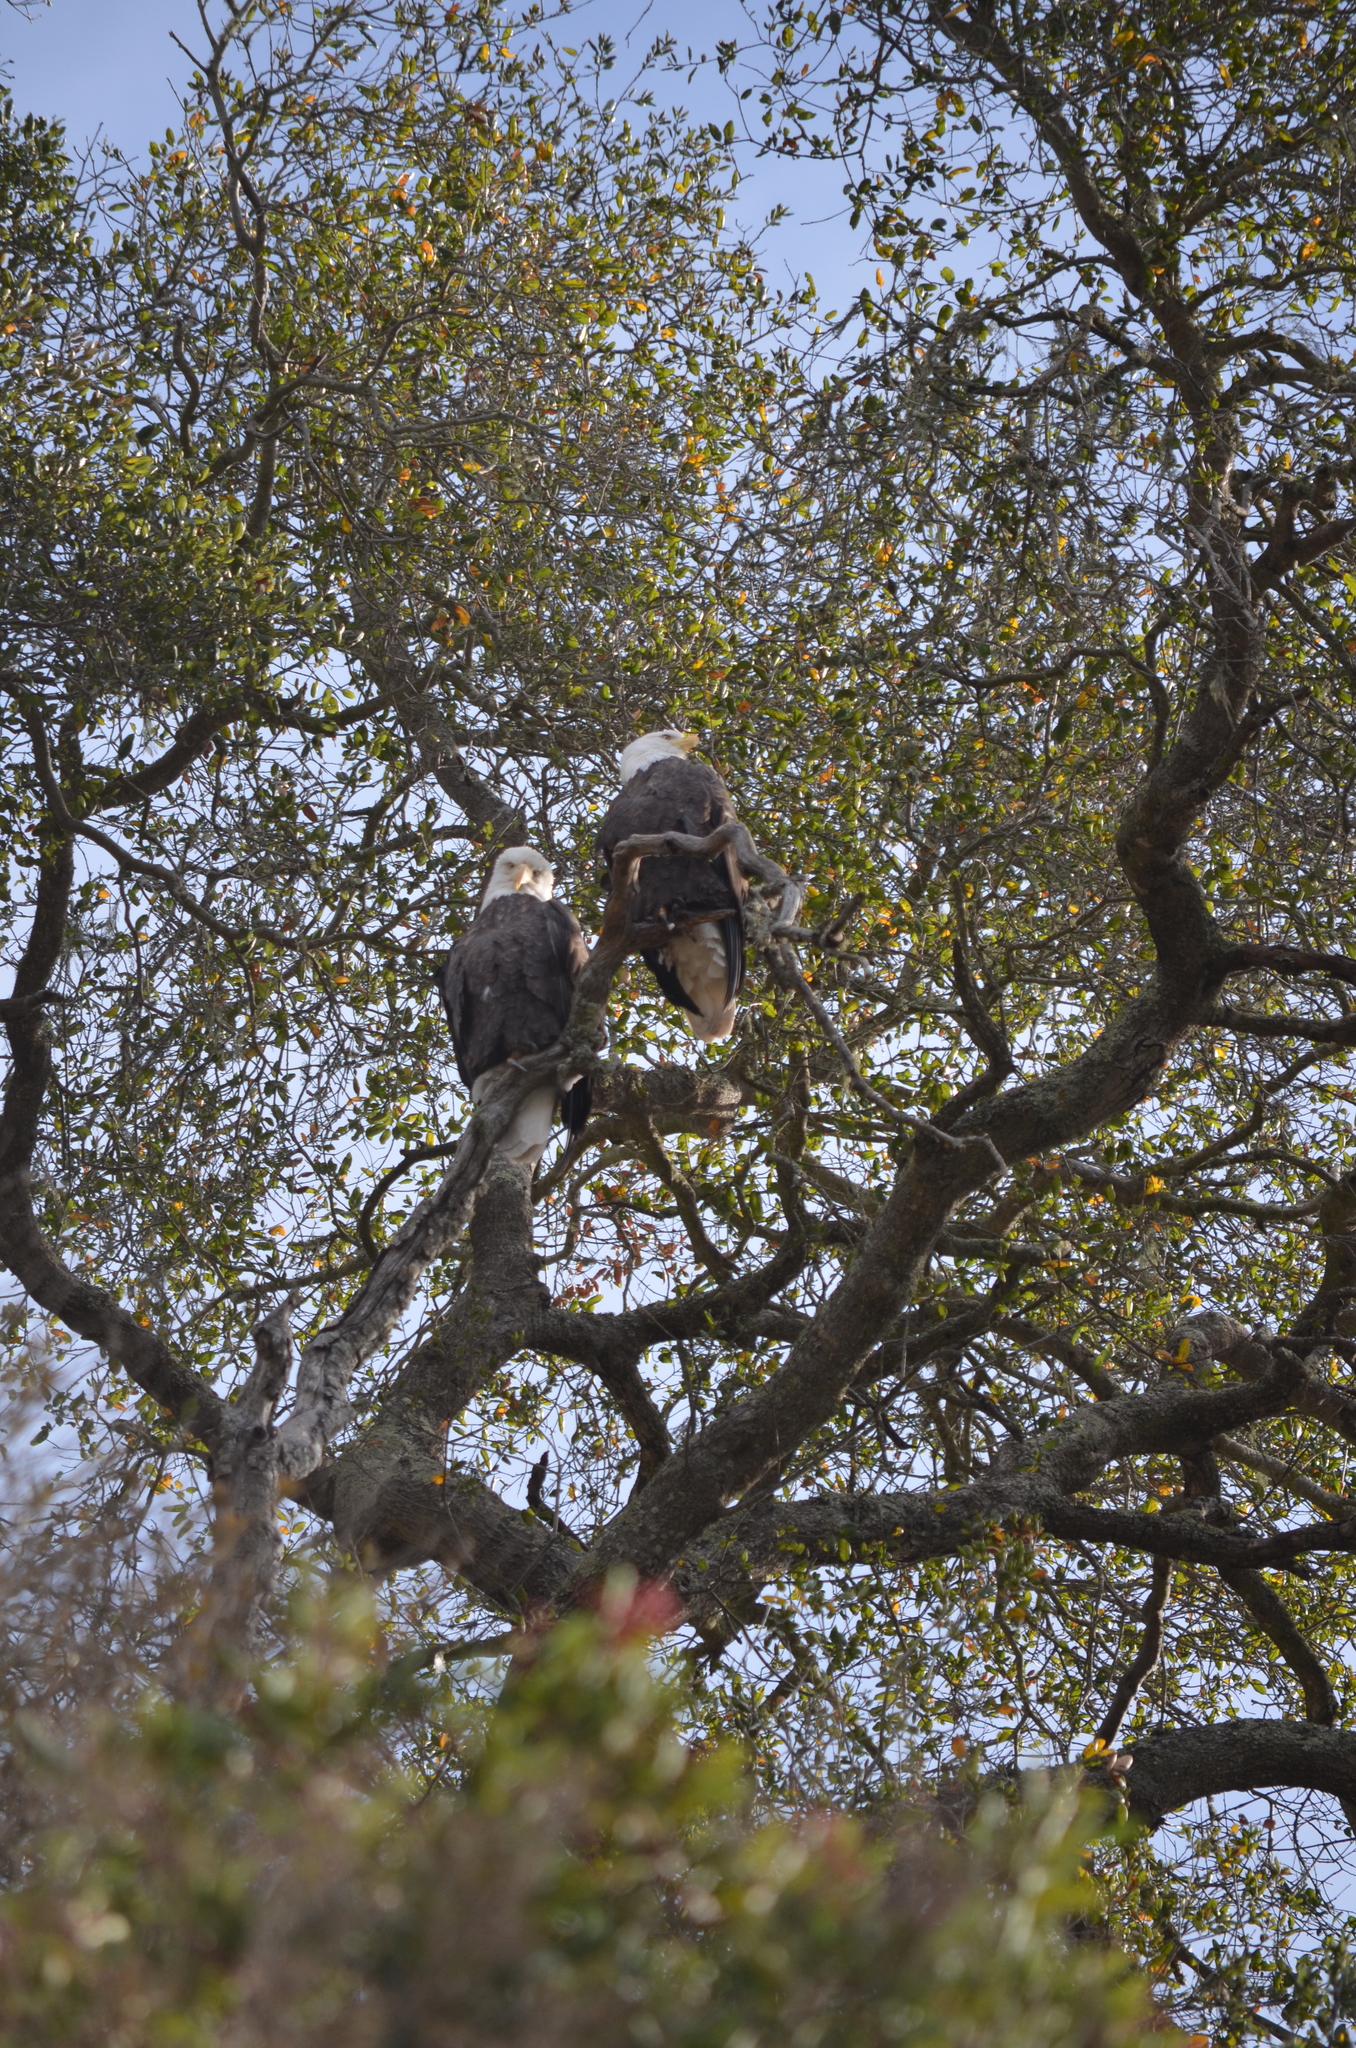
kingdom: Animalia
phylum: Chordata
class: Aves
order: Accipitriformes
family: Accipitridae
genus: Haliaeetus
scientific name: Haliaeetus leucocephalus
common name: Bald eagle
